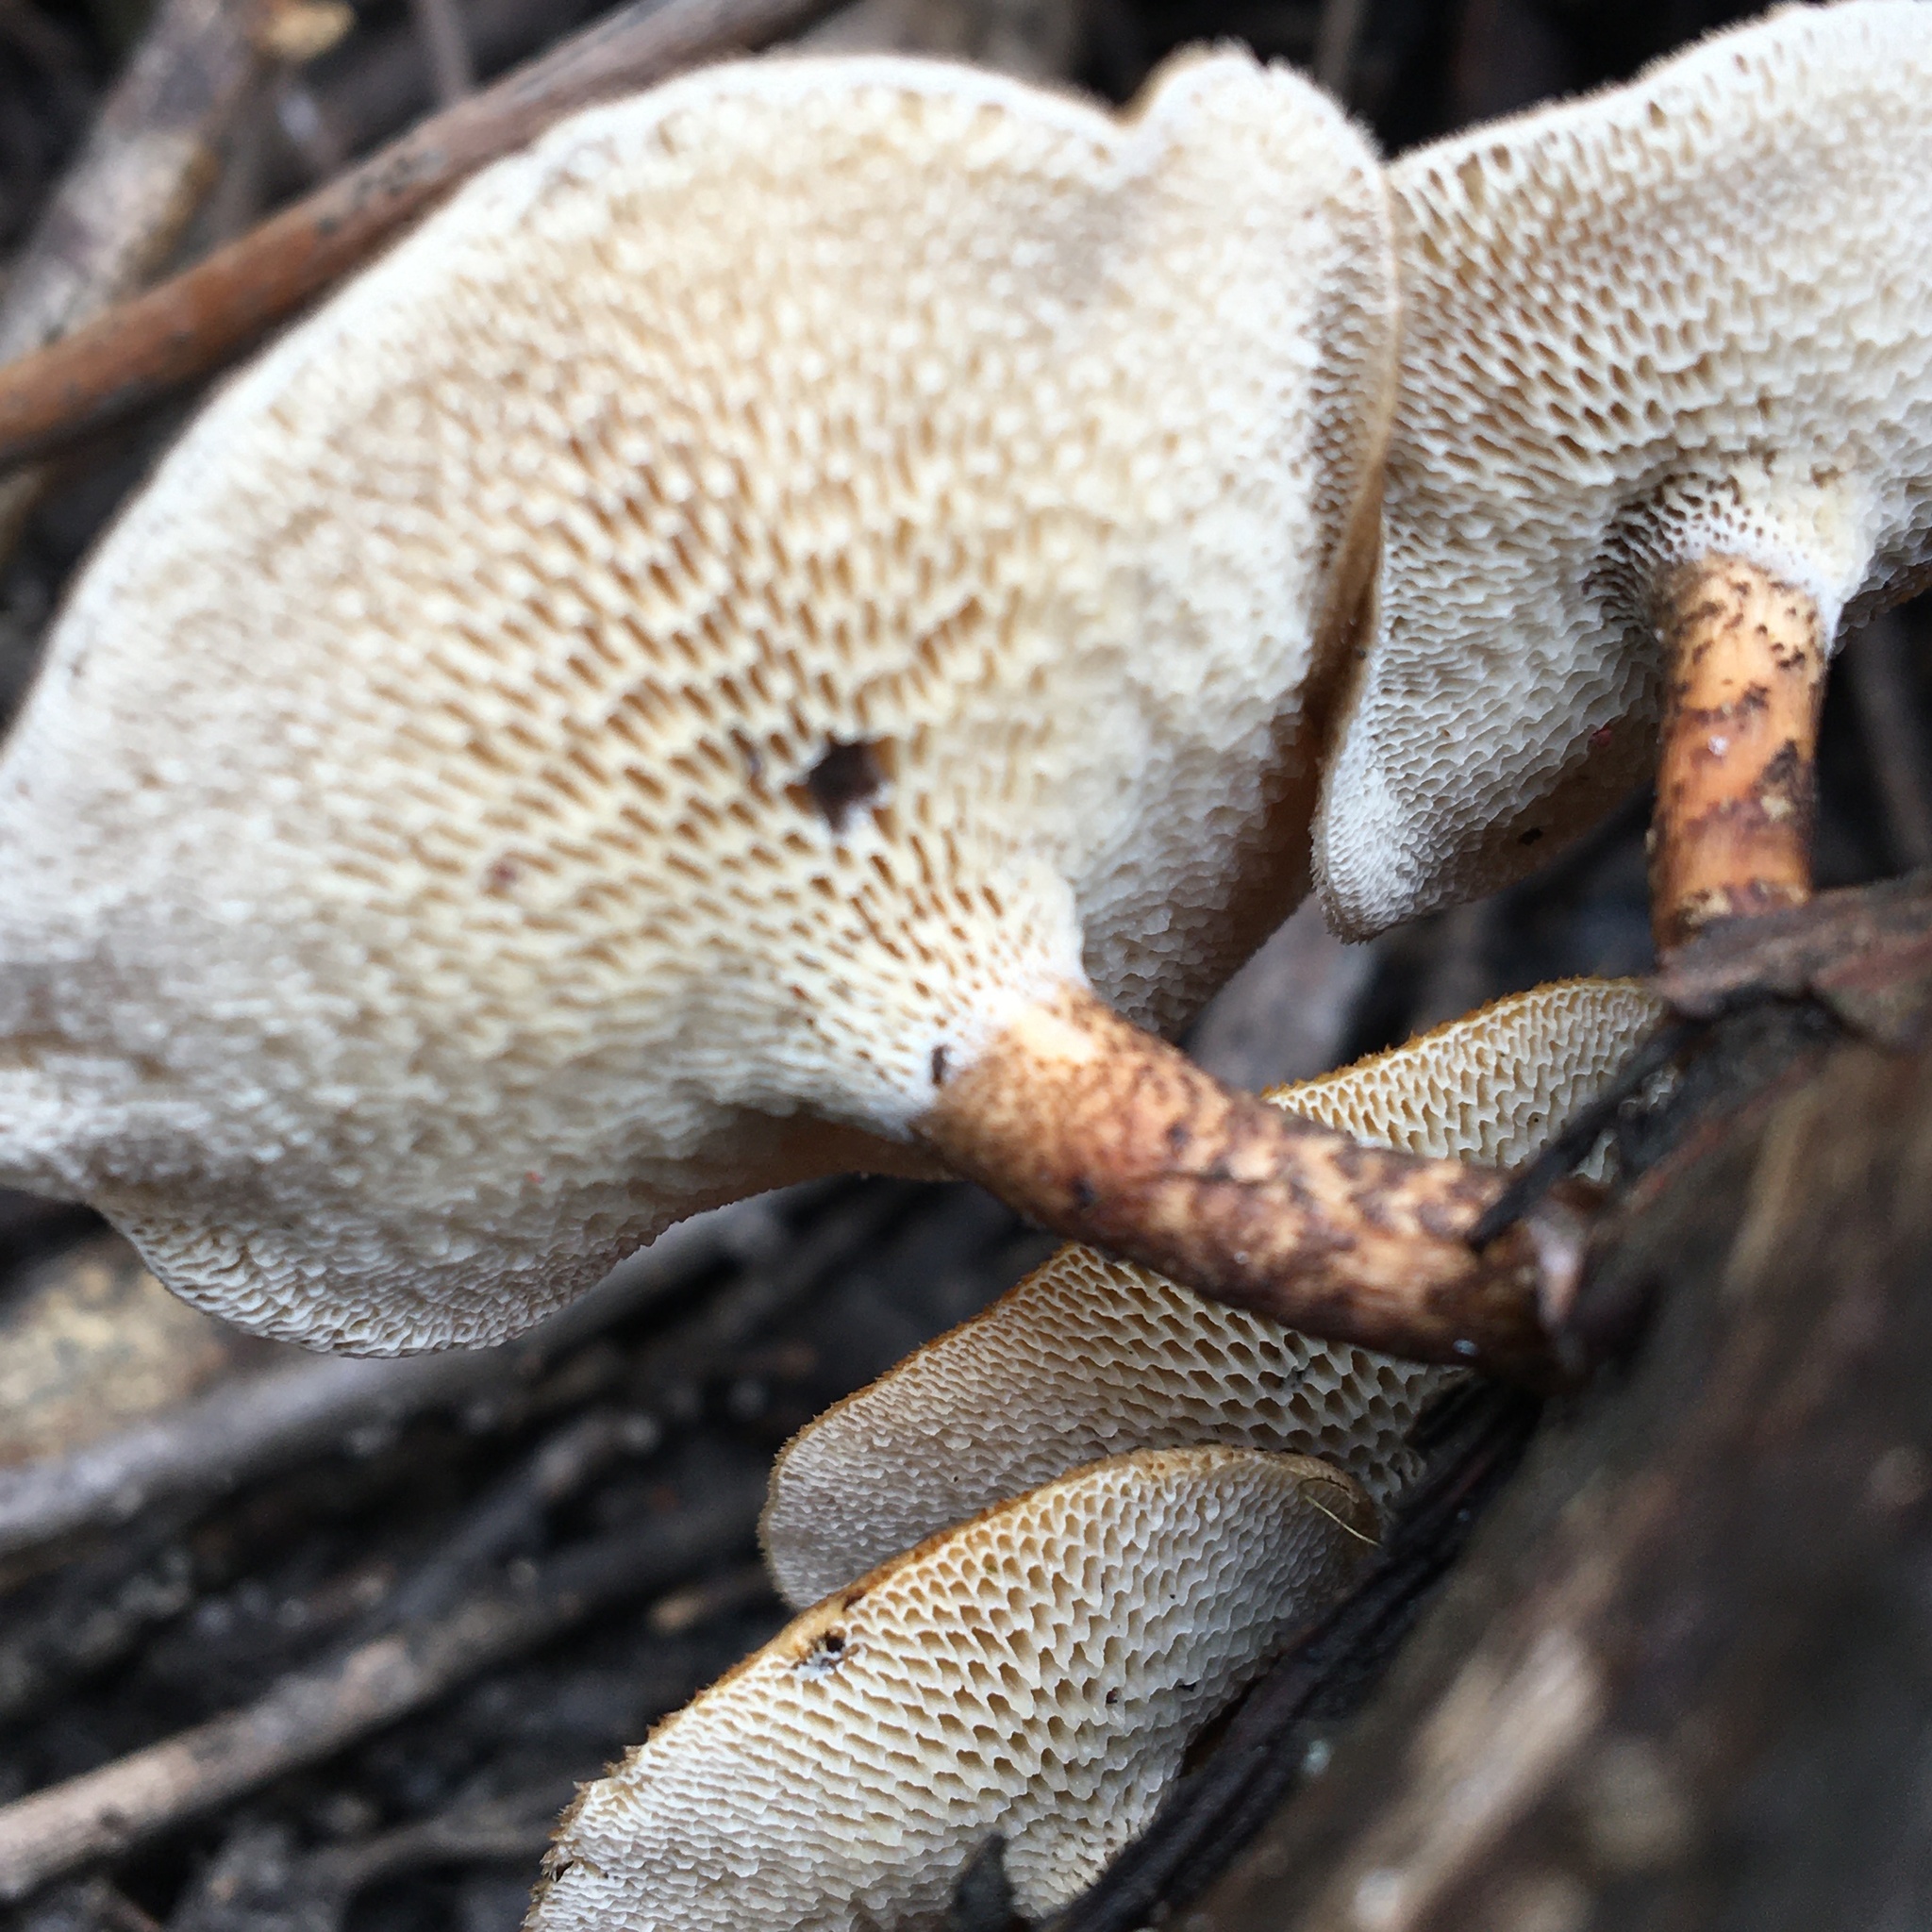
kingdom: Fungi
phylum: Basidiomycota
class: Agaricomycetes
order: Polyporales
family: Polyporaceae
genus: Lentinus
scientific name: Lentinus arcularius
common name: Spring polypore
